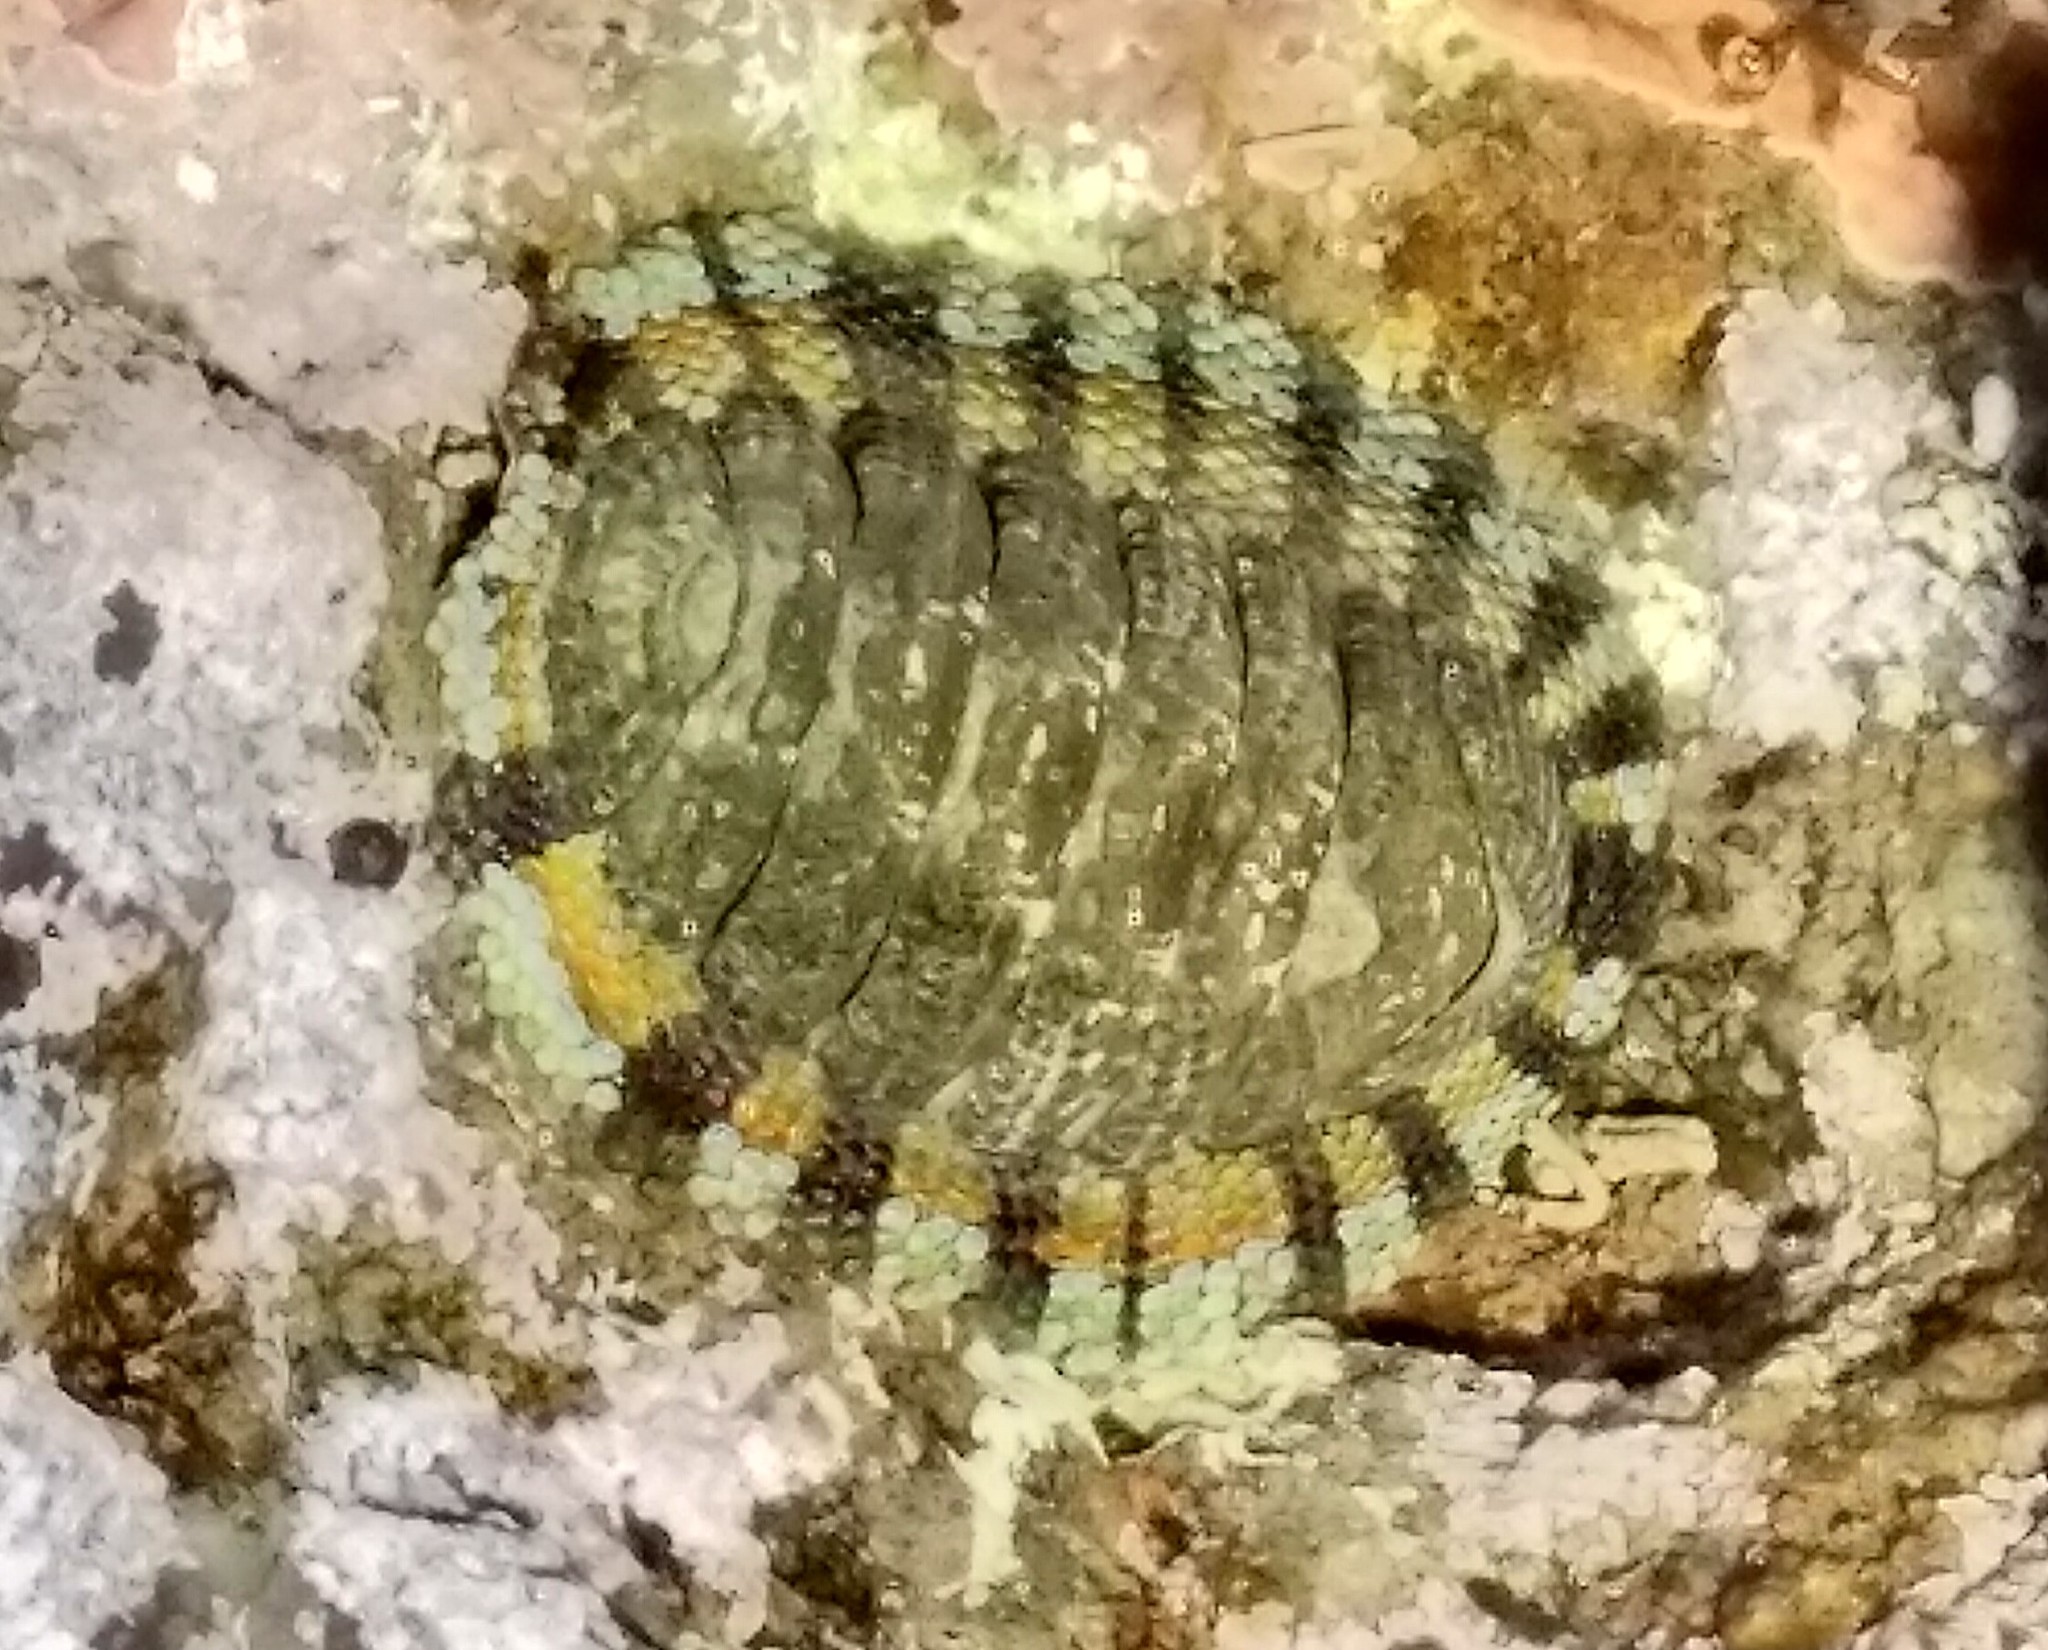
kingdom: Animalia
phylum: Mollusca
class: Polyplacophora
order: Chitonida
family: Chitonidae
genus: Sypharochiton
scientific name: Sypharochiton sinclairi
